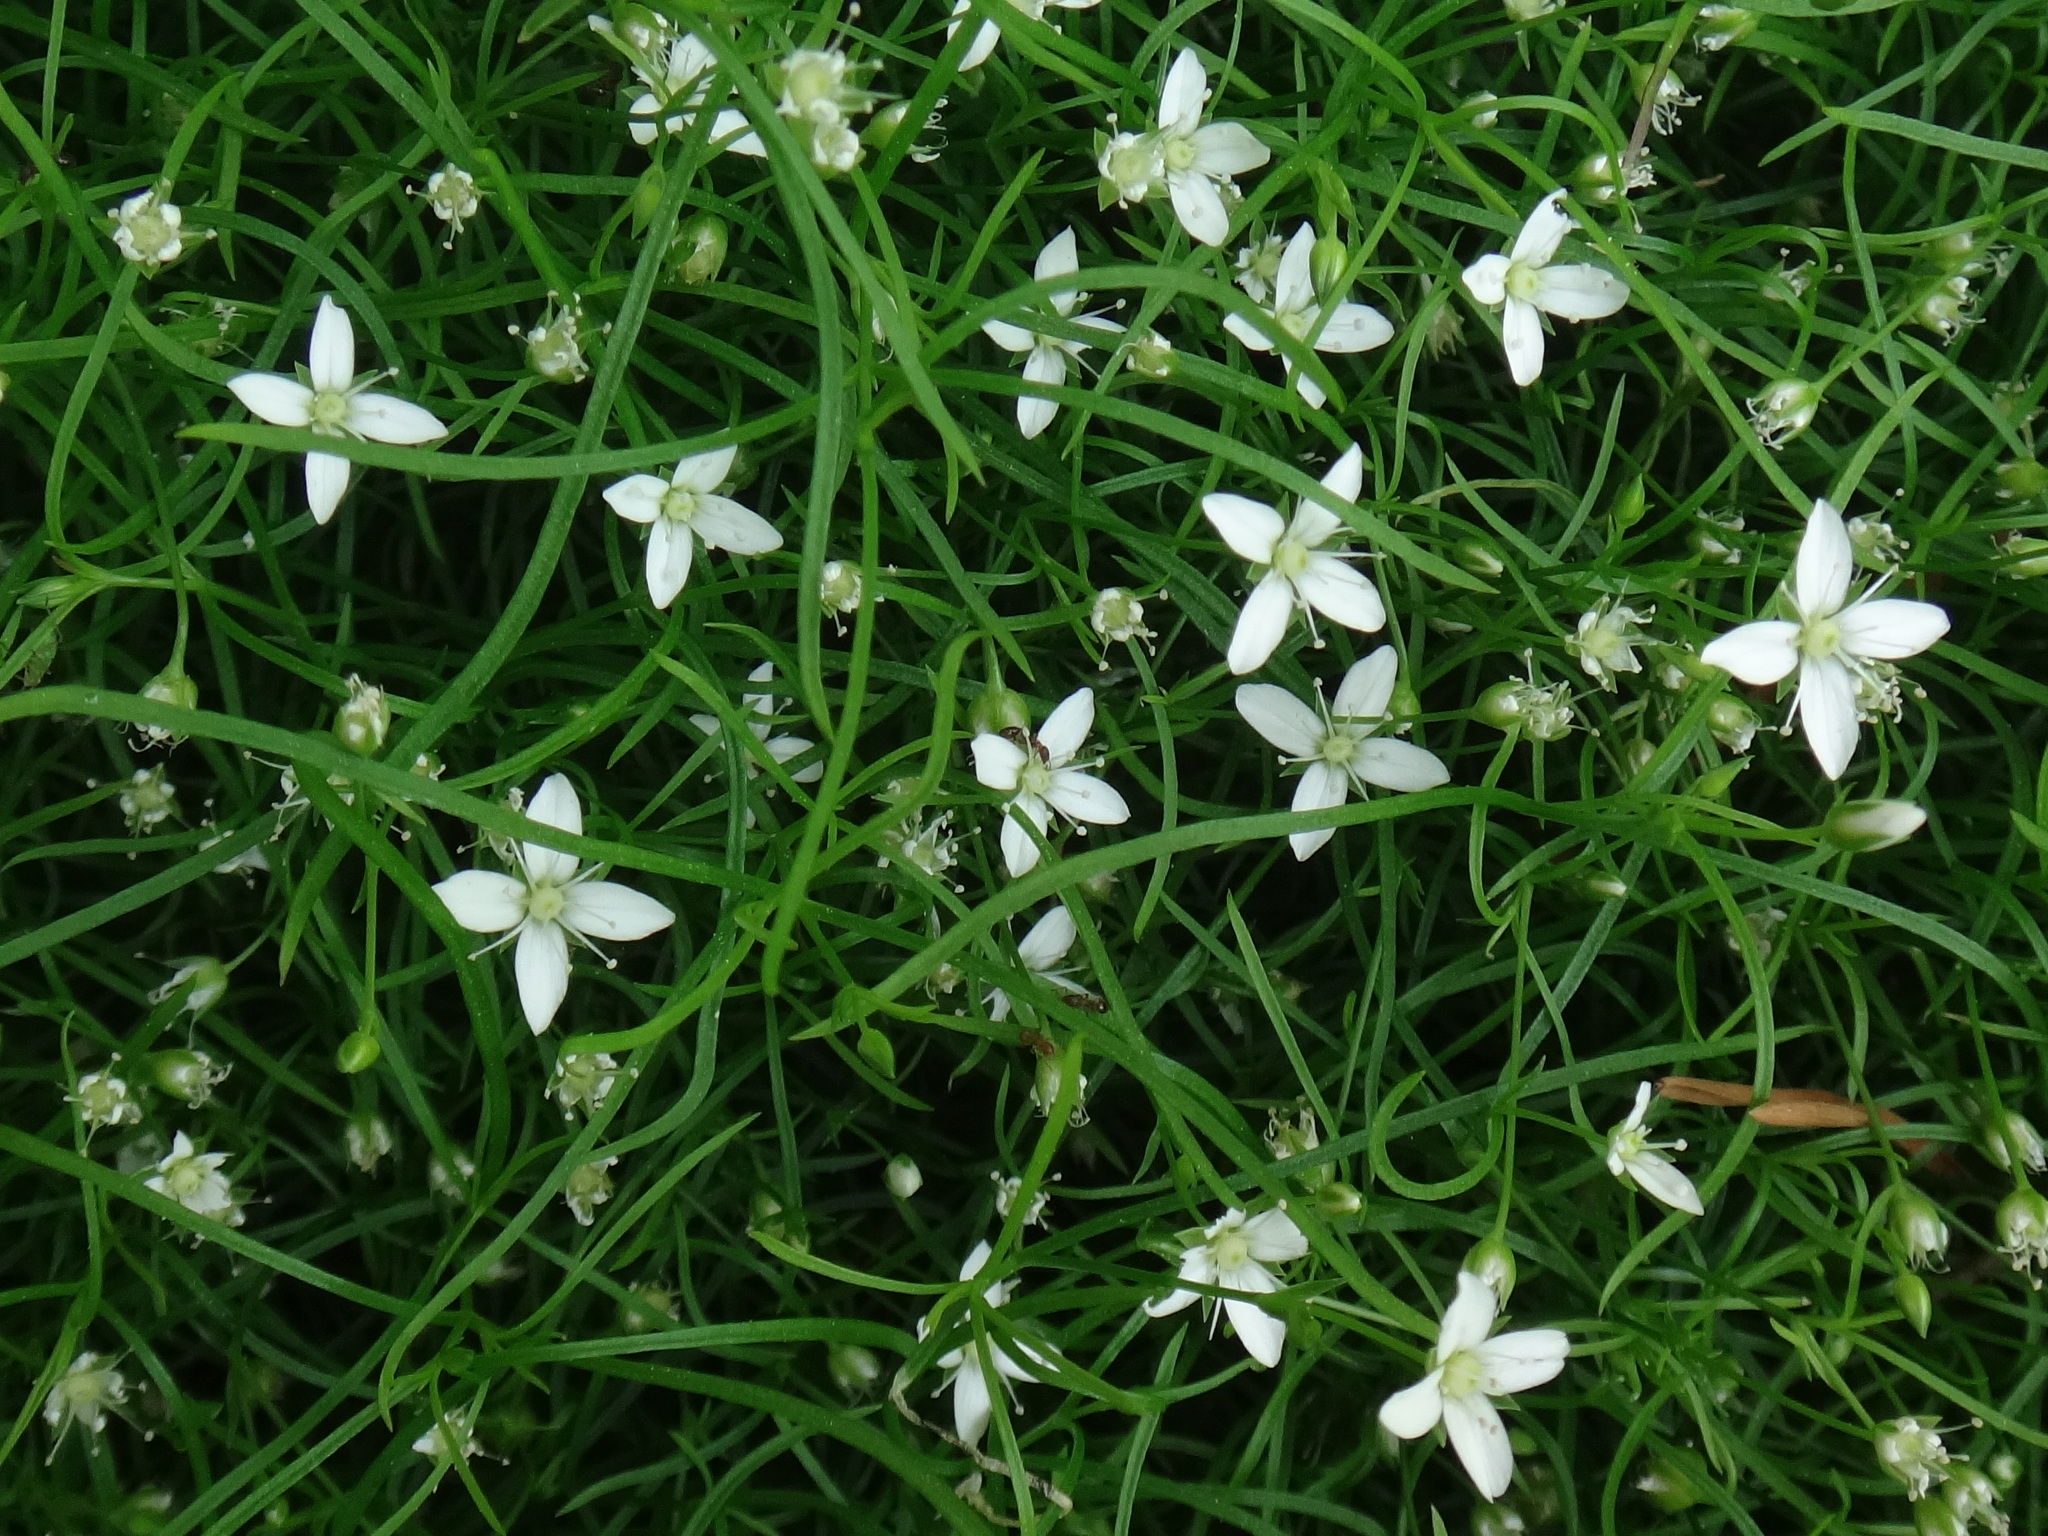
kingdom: Plantae
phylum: Tracheophyta
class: Magnoliopsida
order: Caryophyllales
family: Caryophyllaceae
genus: Moehringia
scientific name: Moehringia muscosa
